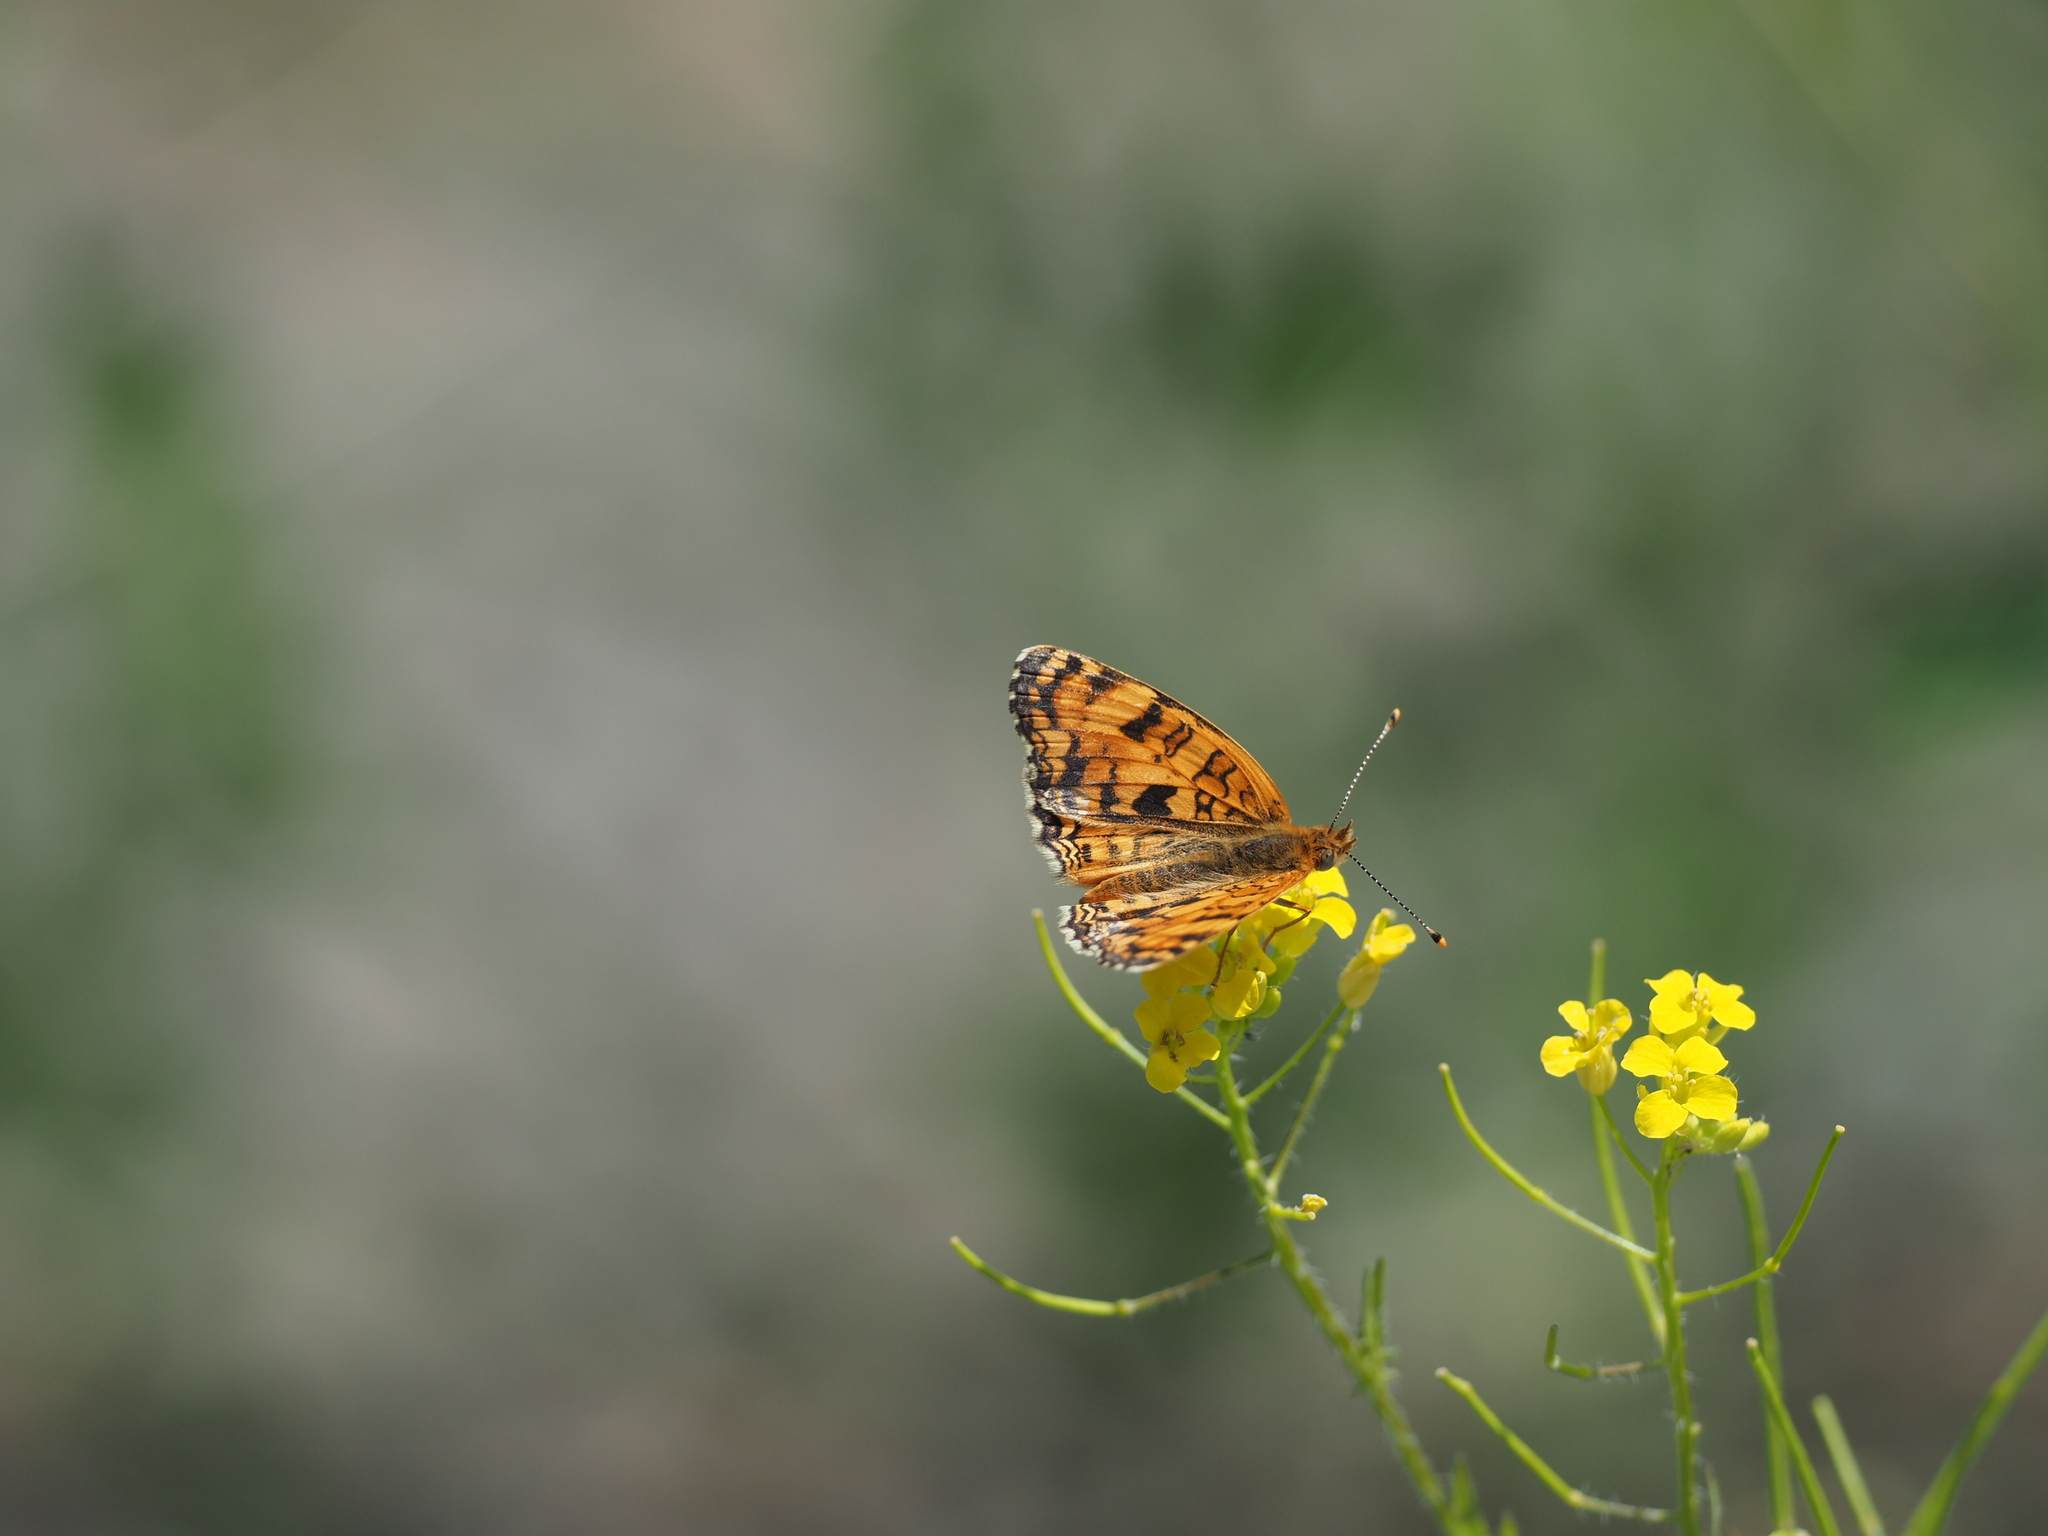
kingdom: Animalia
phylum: Arthropoda
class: Insecta
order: Lepidoptera
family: Nymphalidae
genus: Phyciodes
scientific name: Phyciodes pallida
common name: Pale crescent
